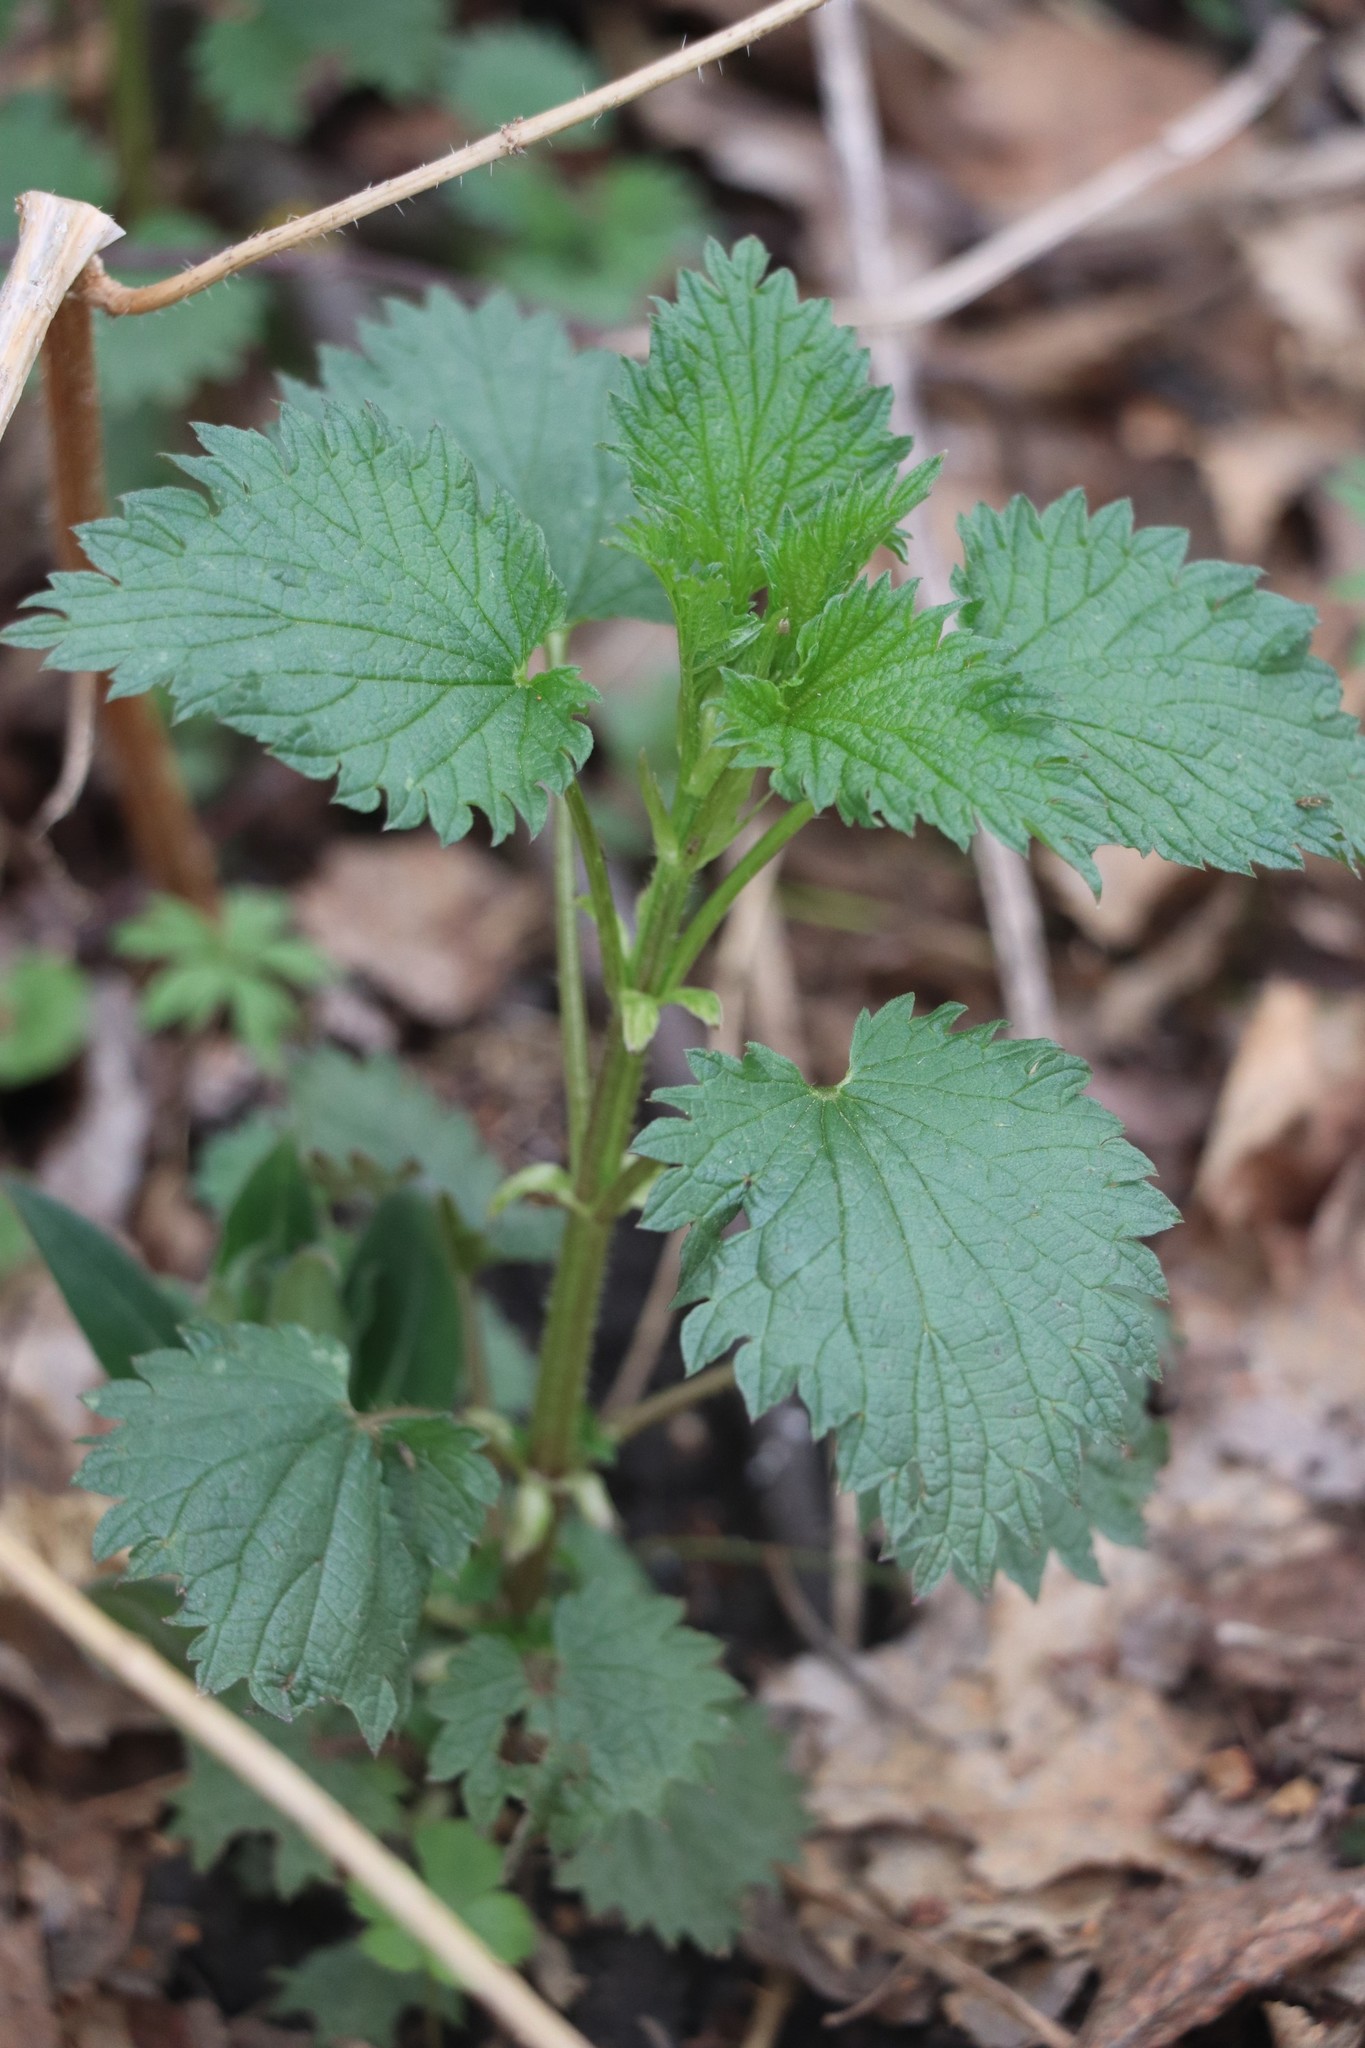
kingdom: Plantae
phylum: Tracheophyta
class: Magnoliopsida
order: Rosales
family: Urticaceae
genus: Urtica
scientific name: Urtica dioica
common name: Common nettle
